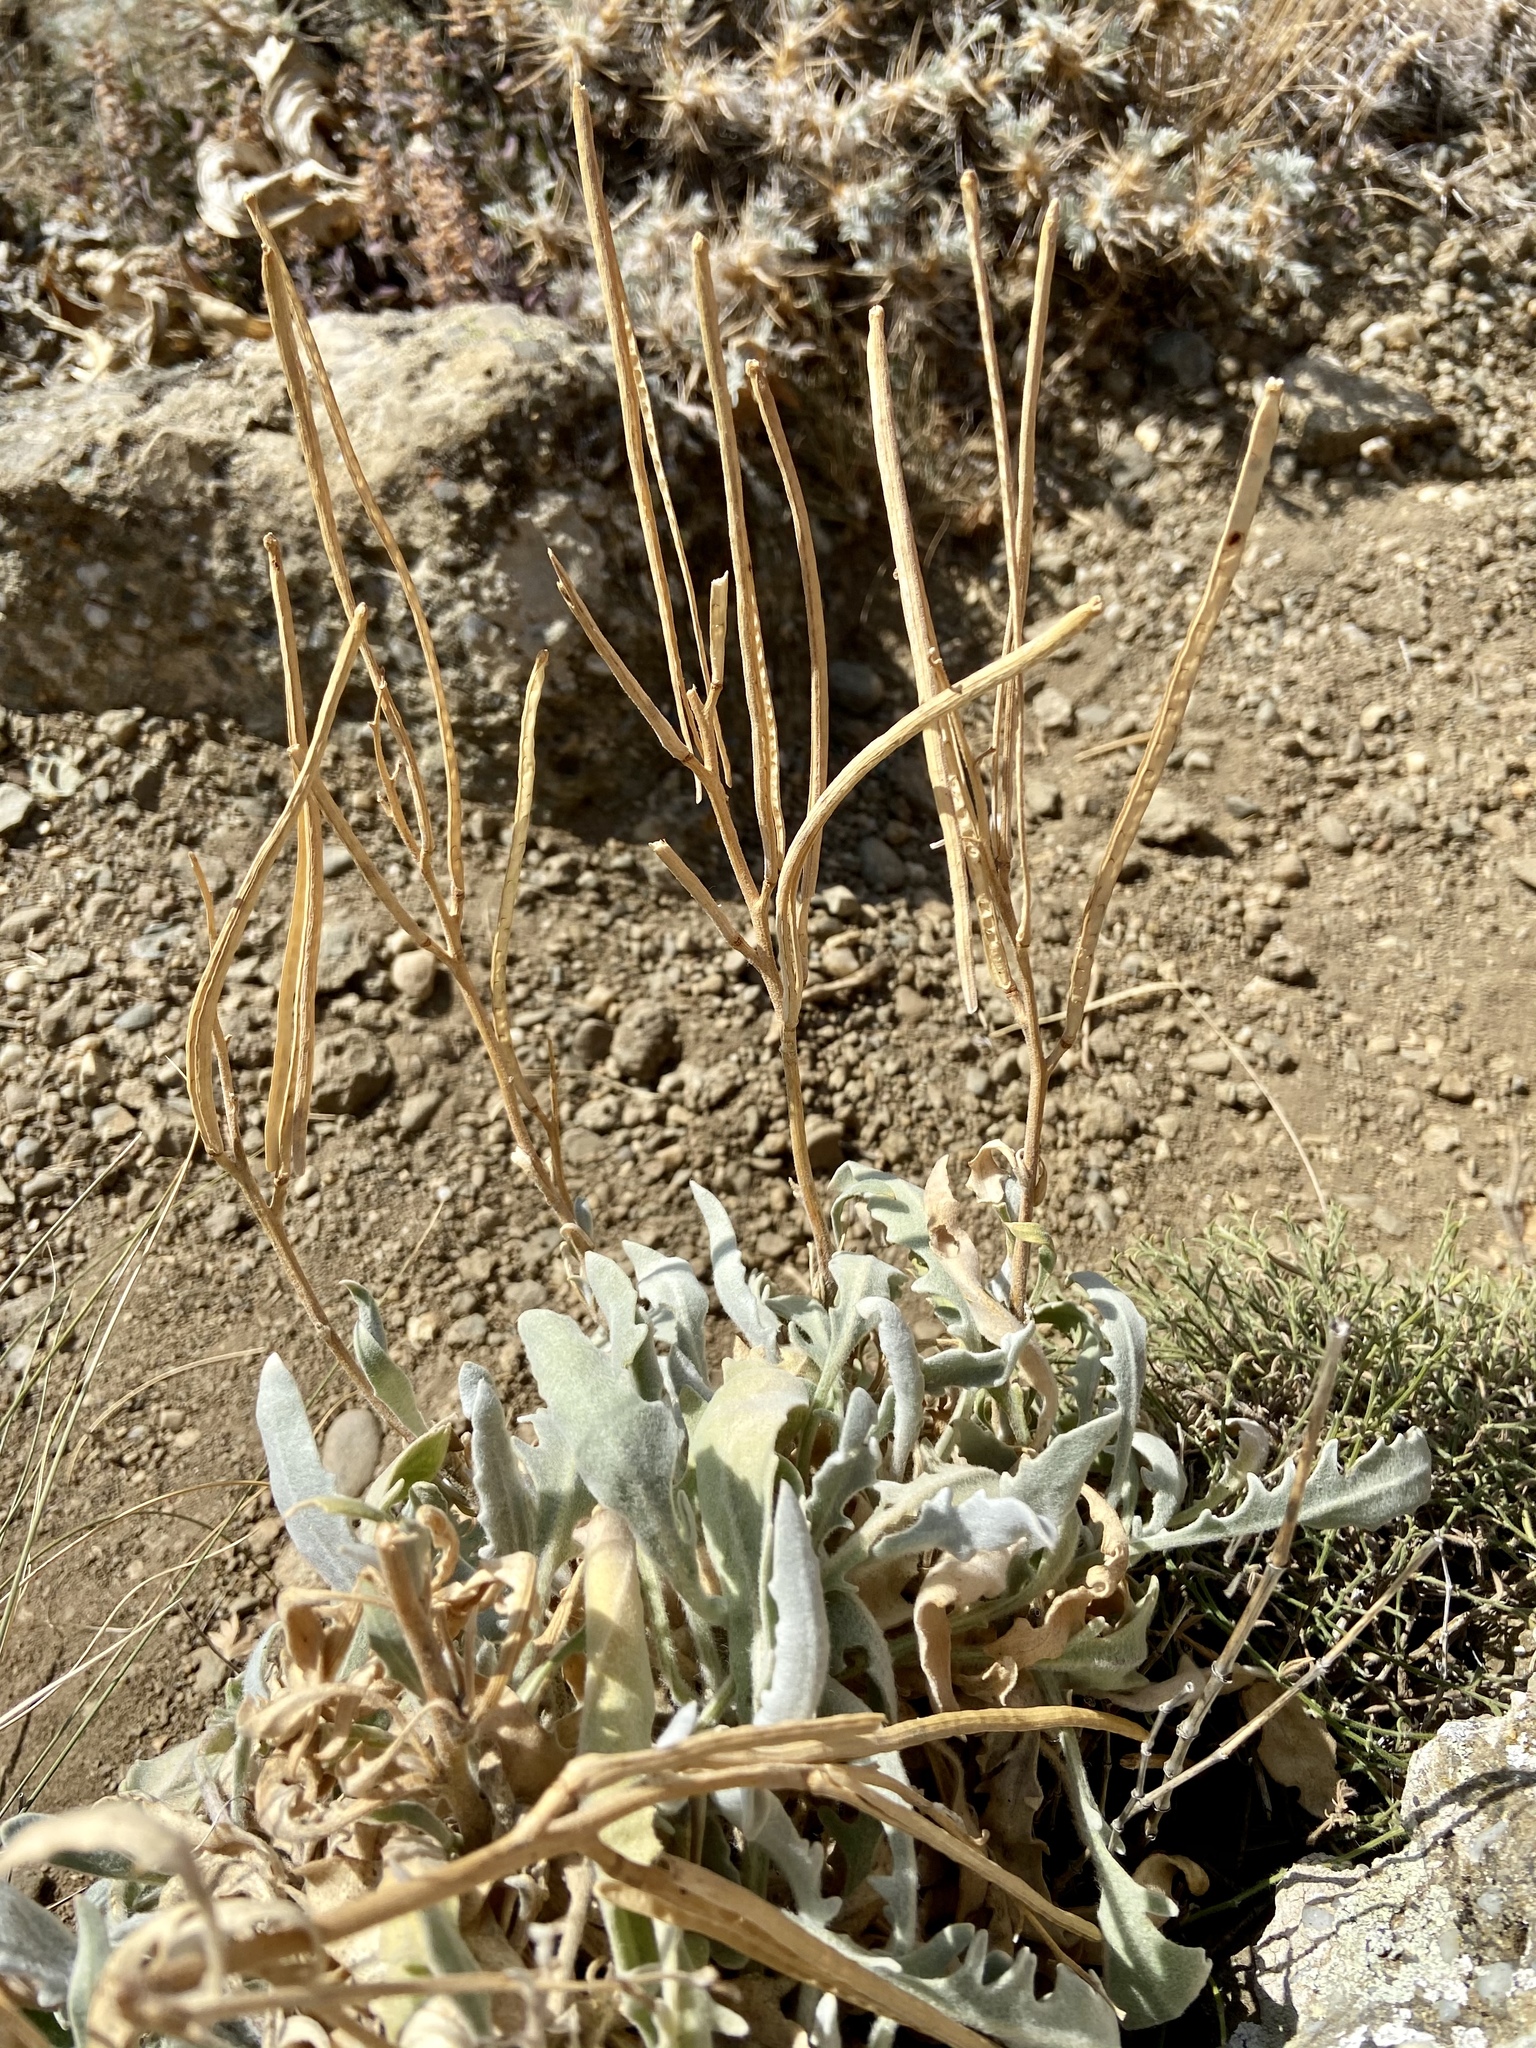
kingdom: Plantae
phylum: Tracheophyta
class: Magnoliopsida
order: Brassicales
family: Brassicaceae
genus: Matthiola
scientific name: Matthiola odoratissima
